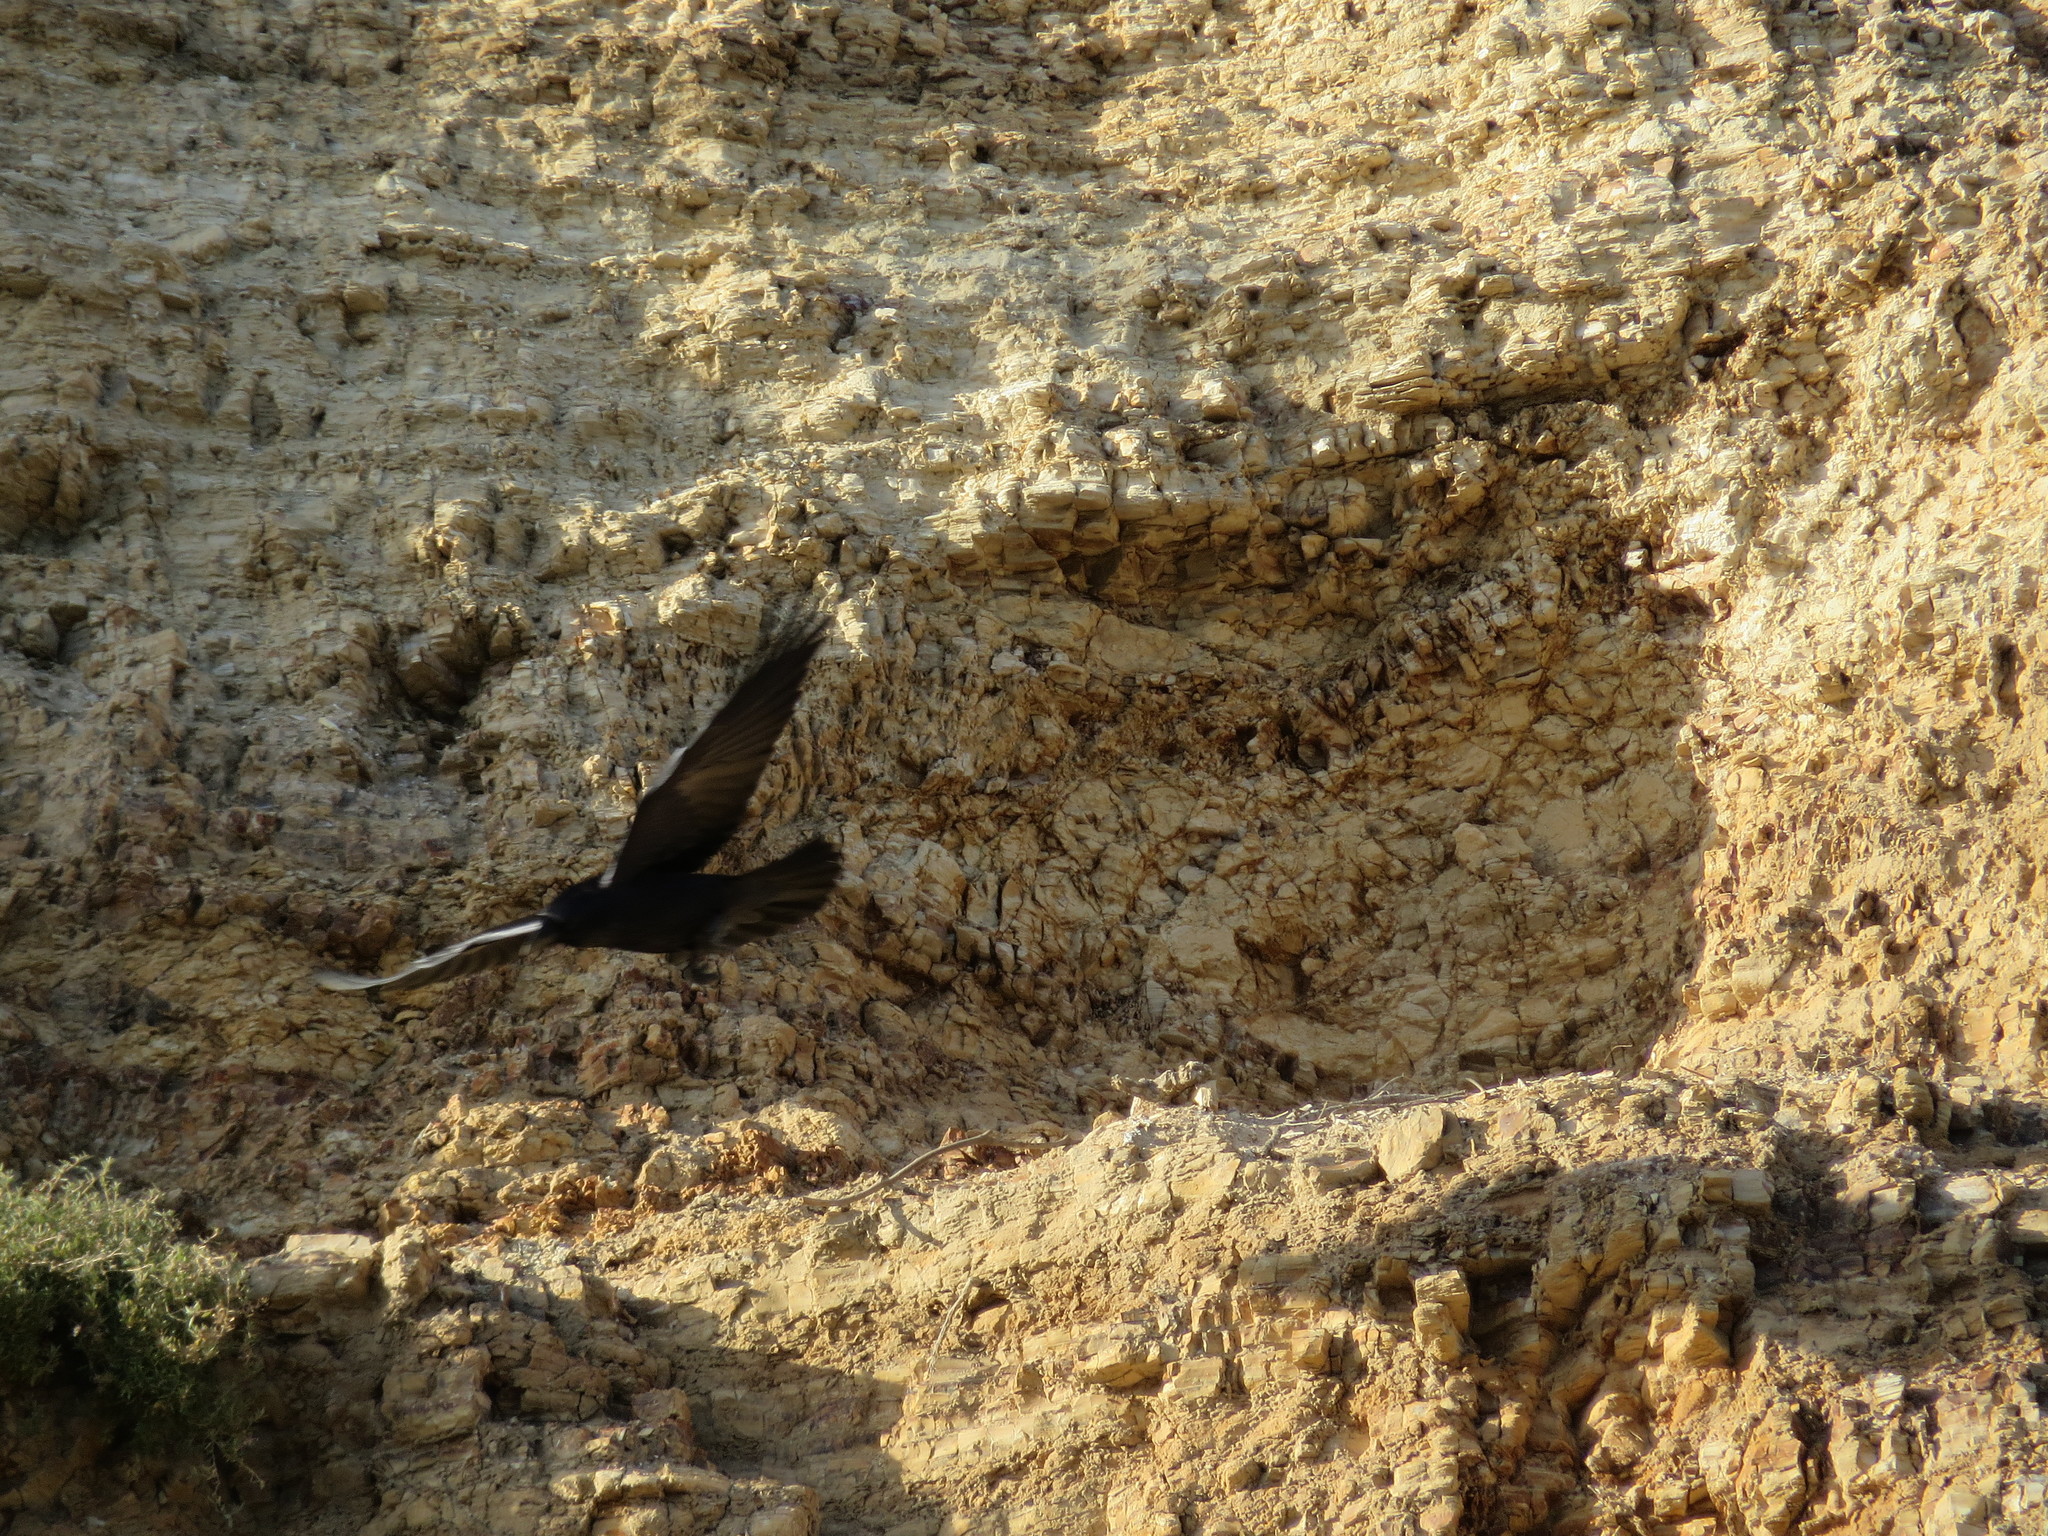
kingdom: Animalia
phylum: Chordata
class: Aves
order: Passeriformes
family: Corvidae
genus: Corvus
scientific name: Corvus brachyrhynchos
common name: American crow
